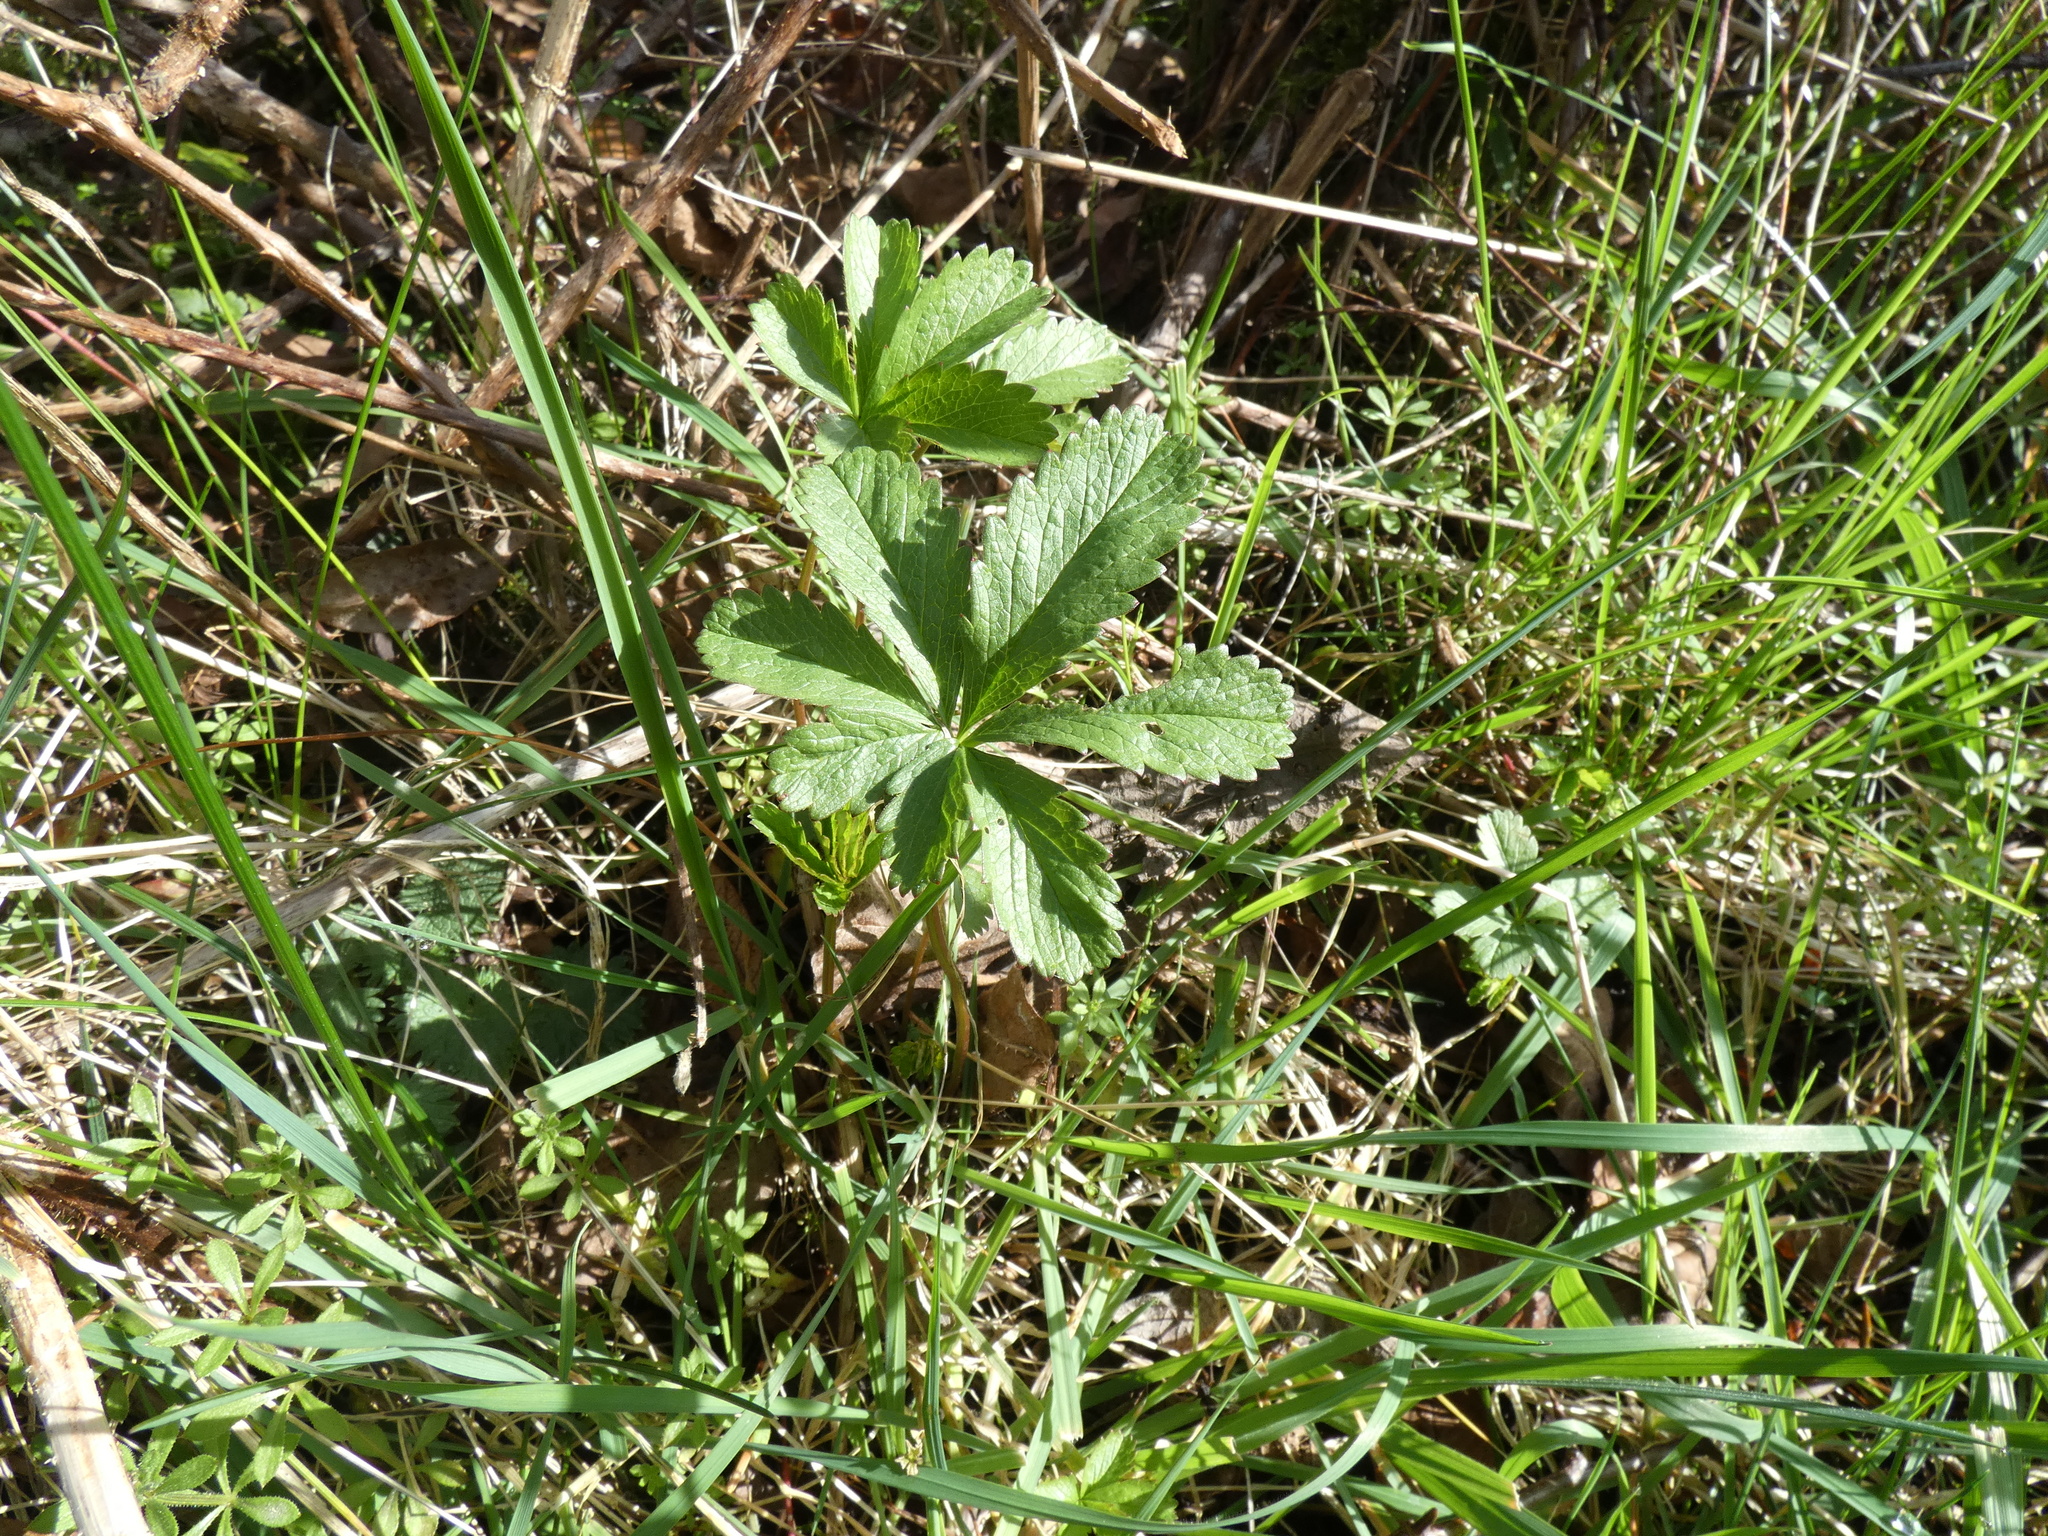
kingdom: Plantae
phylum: Tracheophyta
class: Magnoliopsida
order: Rosales
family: Rosaceae
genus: Potentilla
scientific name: Potentilla reptans
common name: Creeping cinquefoil
